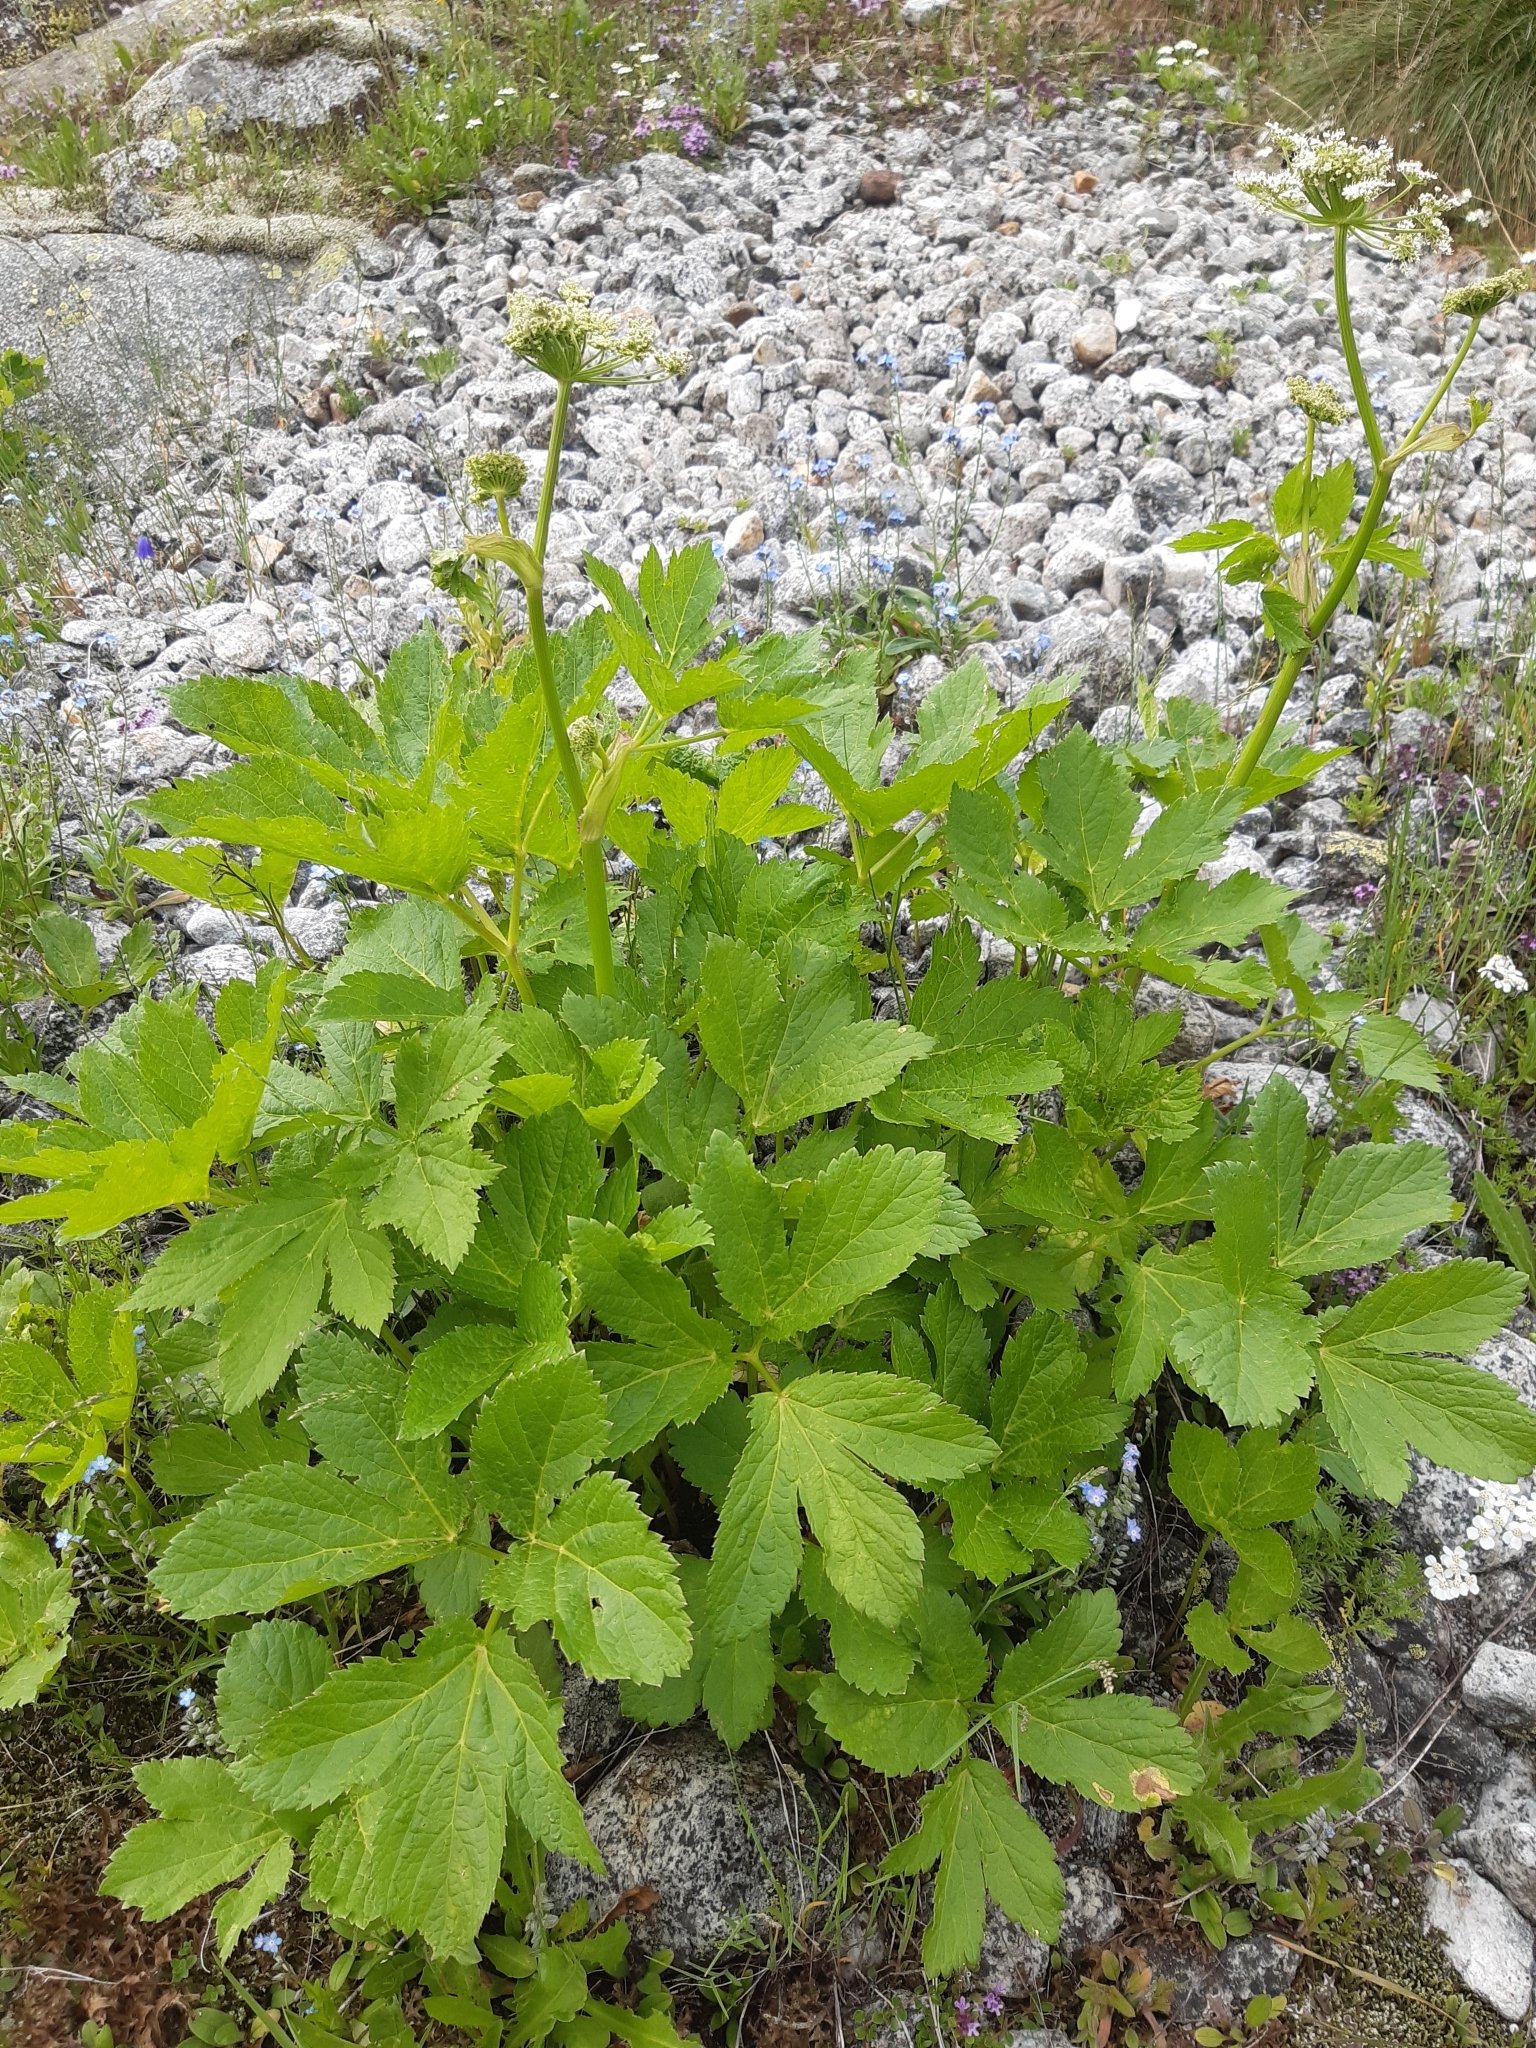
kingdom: Plantae
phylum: Tracheophyta
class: Magnoliopsida
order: Apiales
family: Apiaceae
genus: Imperatoria
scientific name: Imperatoria ostruthium
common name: Masterwort
